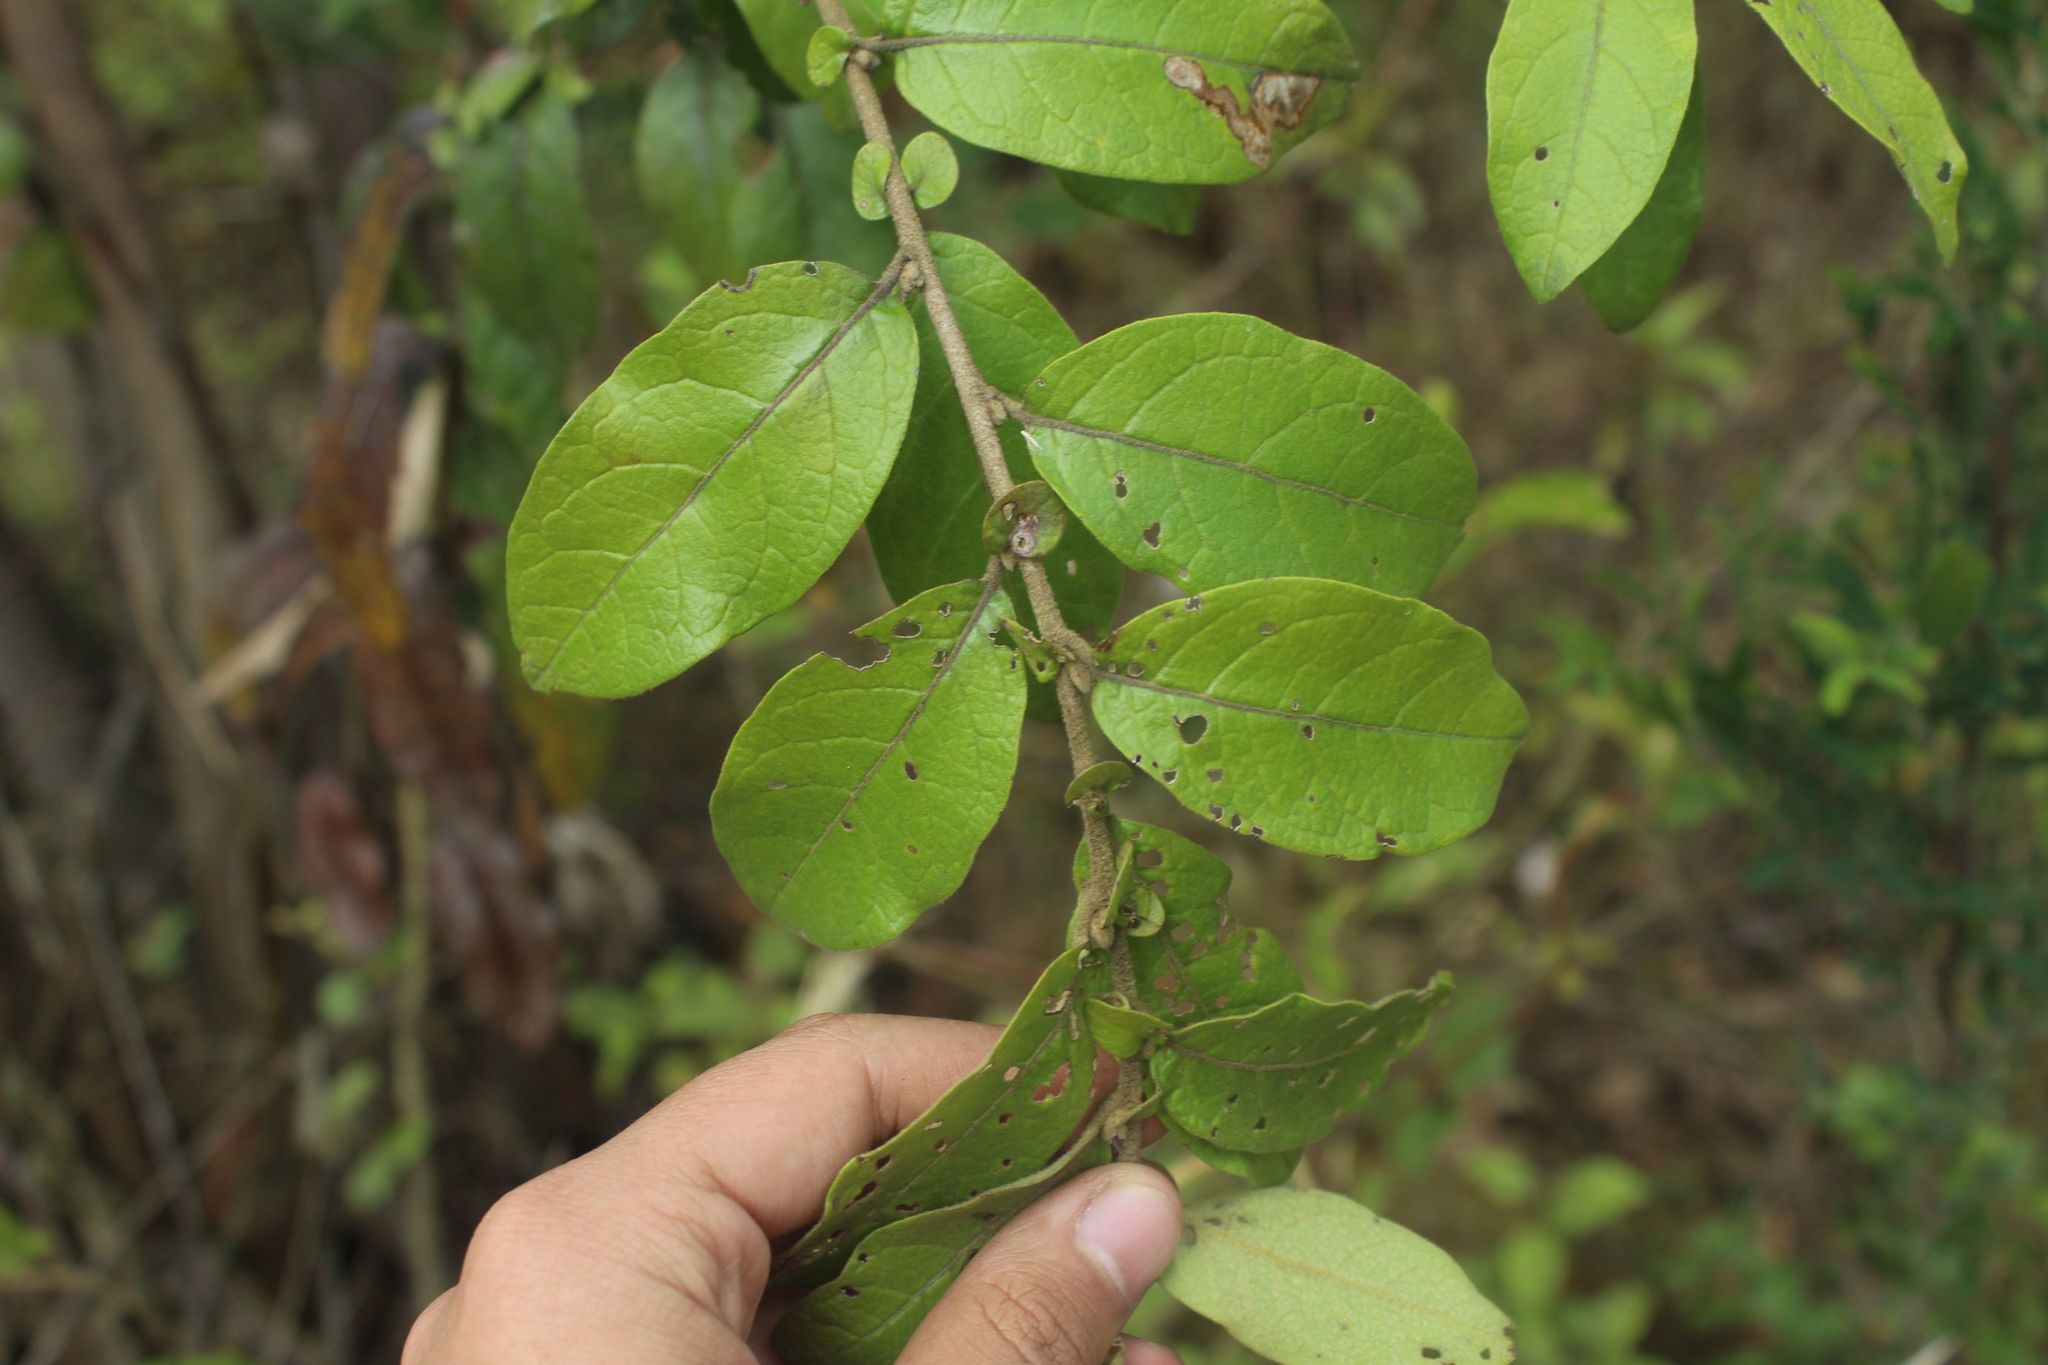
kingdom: Plantae
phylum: Tracheophyta
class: Magnoliopsida
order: Solanales
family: Solanaceae
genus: Cestrum
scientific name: Cestrum tomentosum
